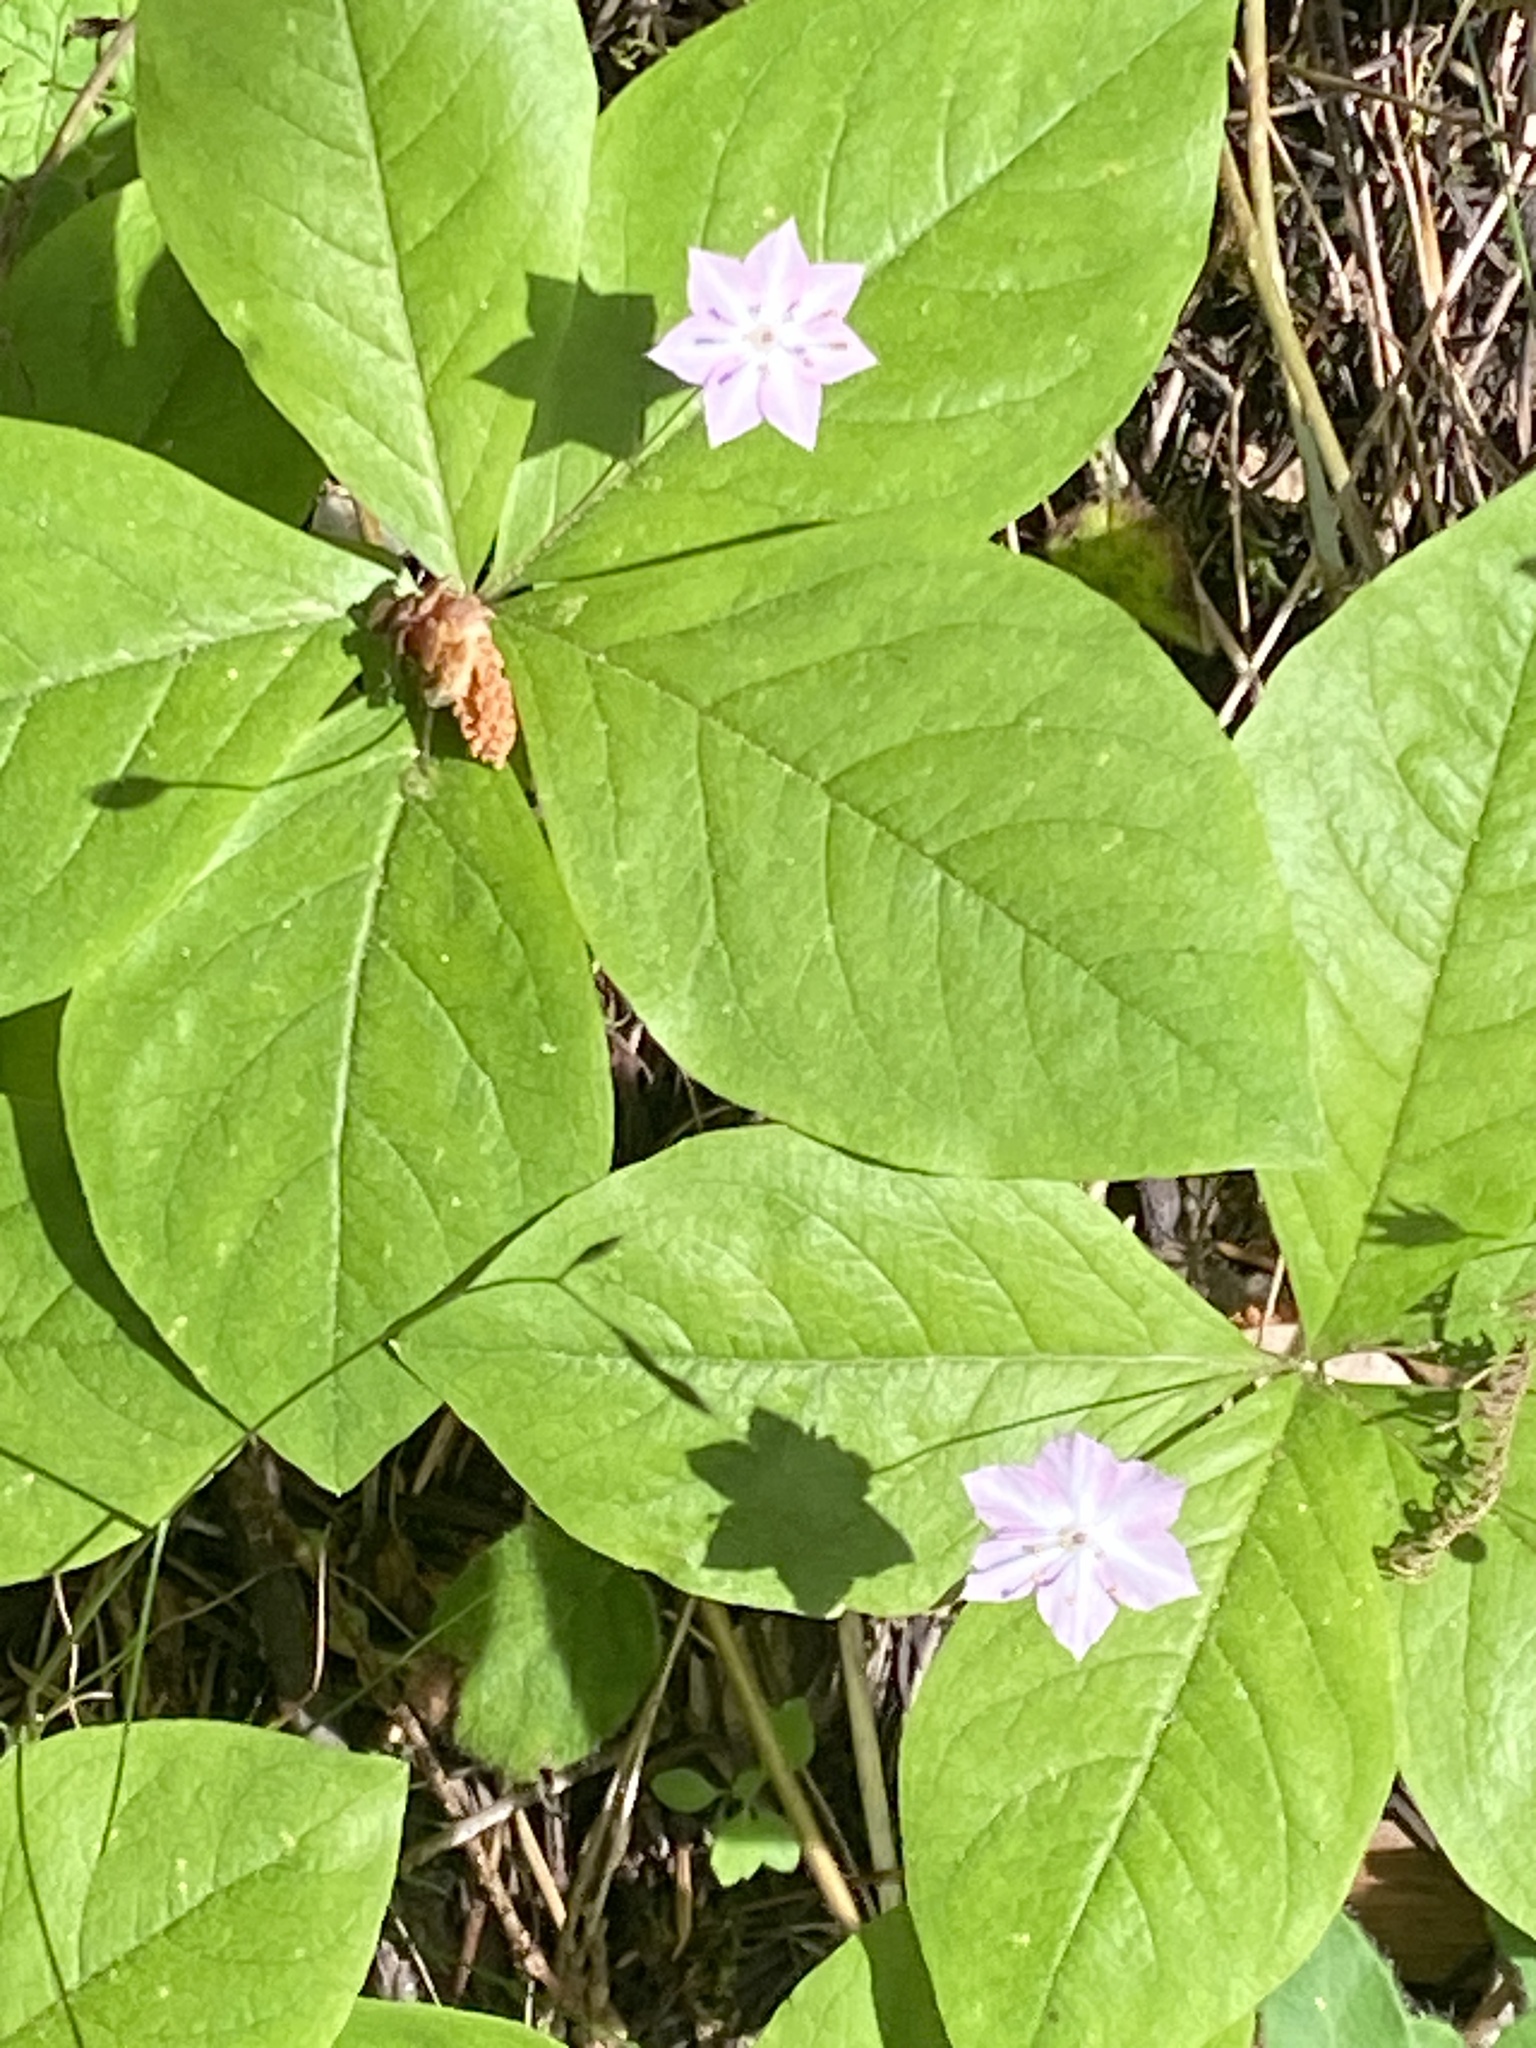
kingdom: Plantae
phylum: Tracheophyta
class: Magnoliopsida
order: Ericales
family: Primulaceae
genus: Lysimachia
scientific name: Lysimachia latifolia
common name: Pacific starflower
